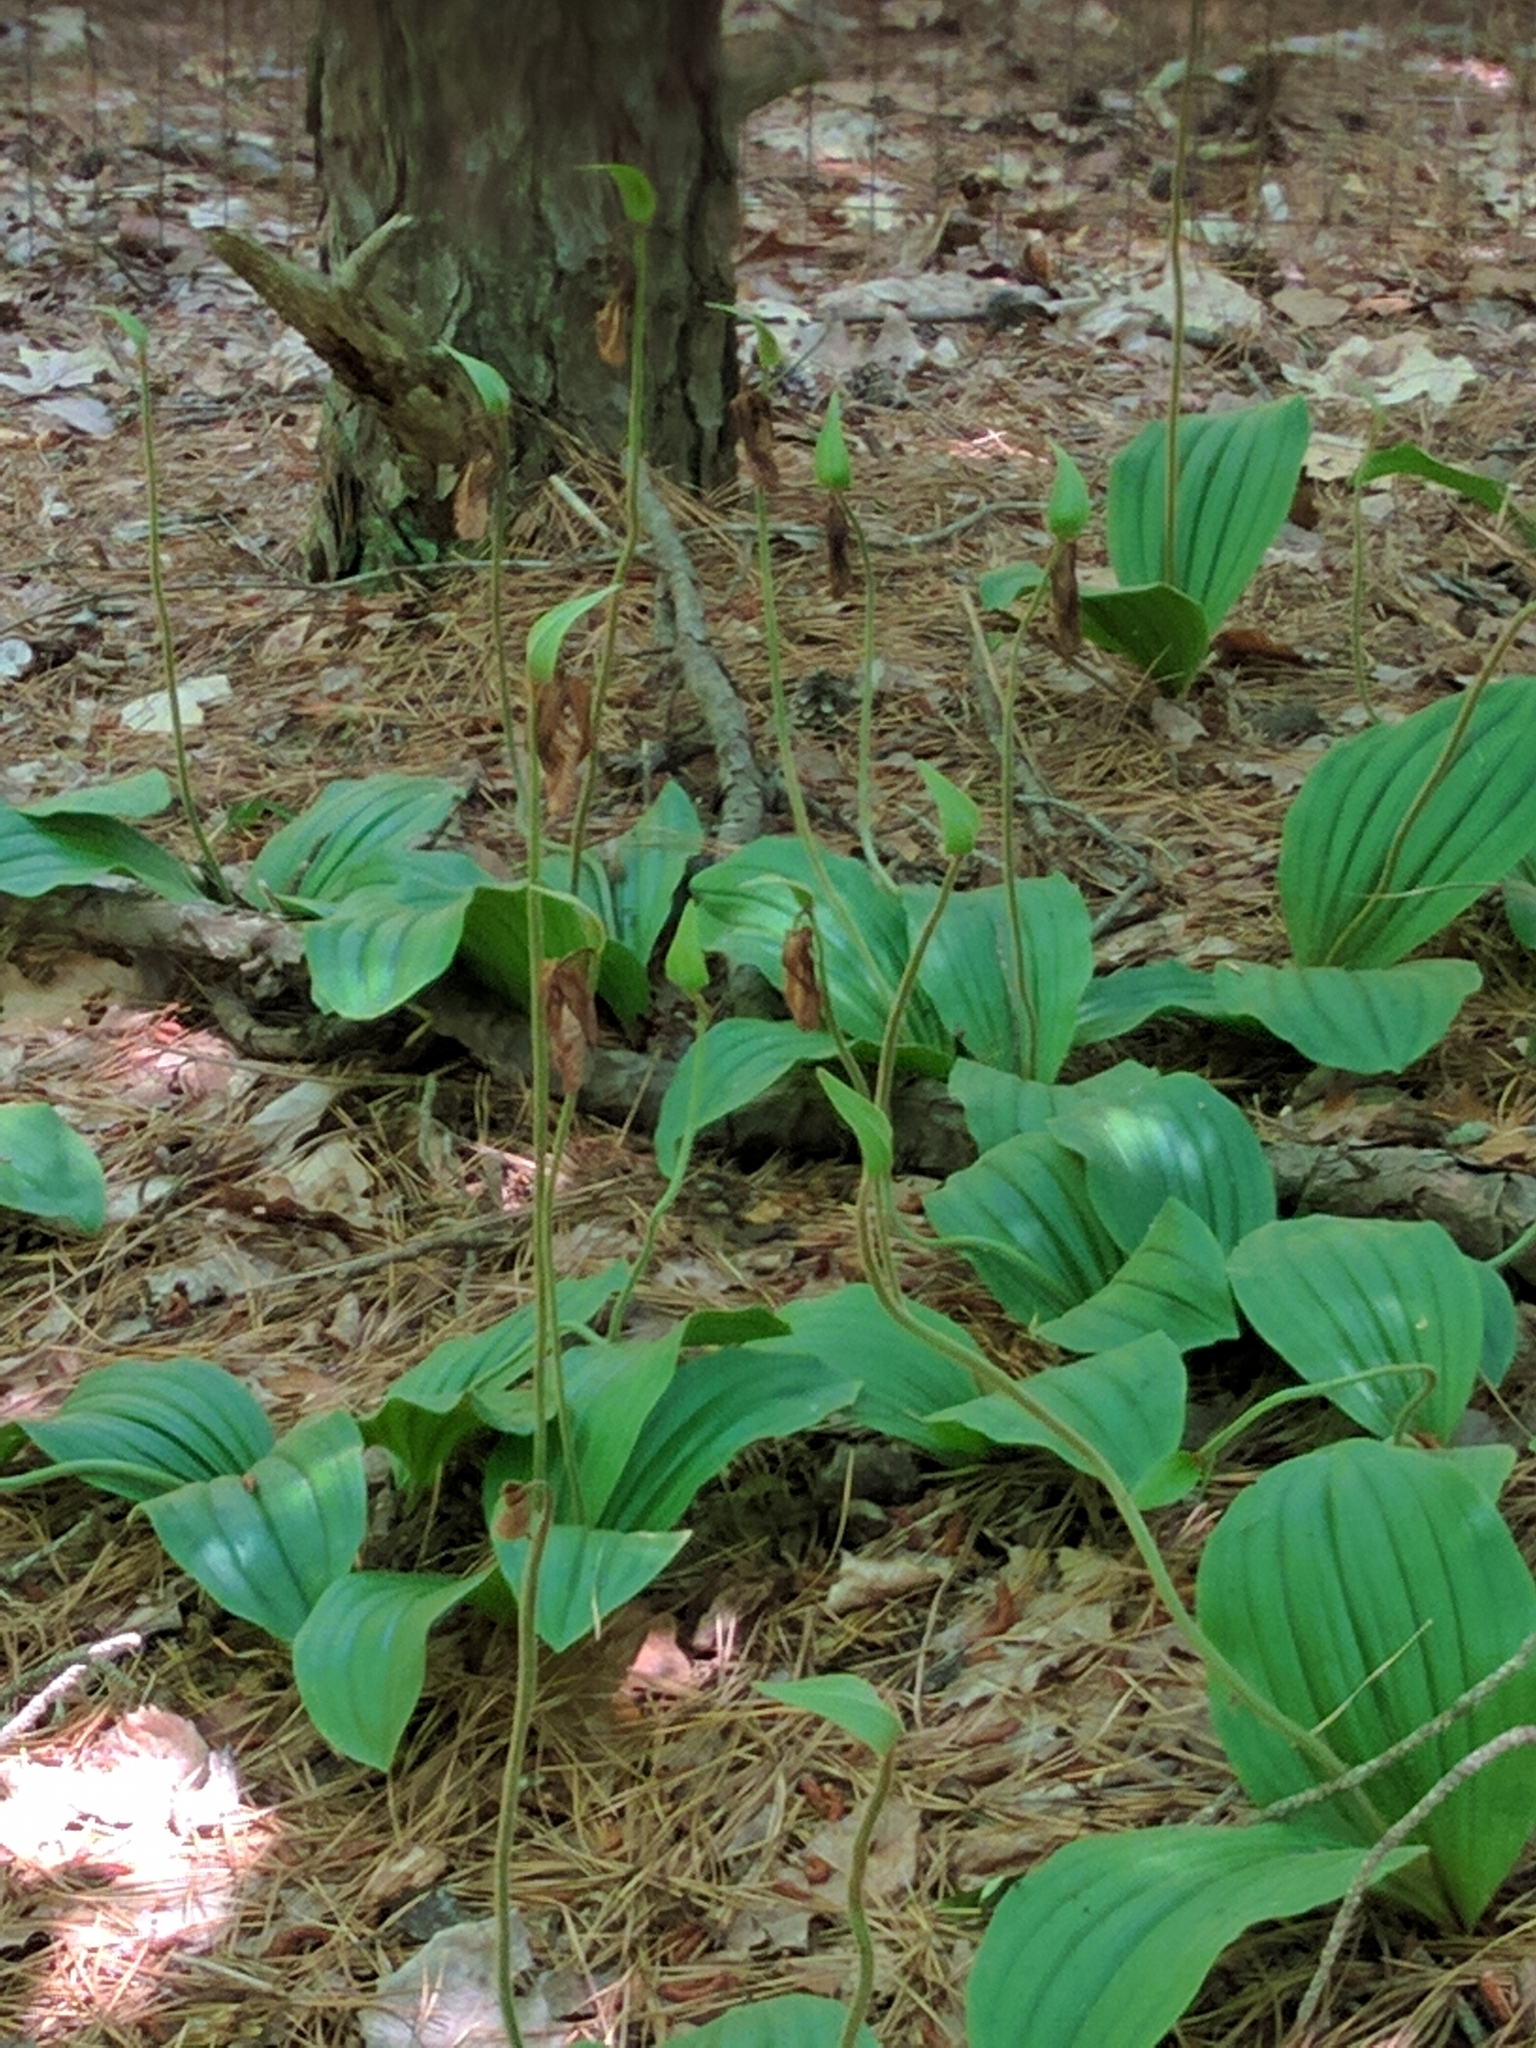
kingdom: Plantae
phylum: Tracheophyta
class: Liliopsida
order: Asparagales
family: Orchidaceae
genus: Cypripedium
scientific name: Cypripedium acaule
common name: Pink lady's-slipper
